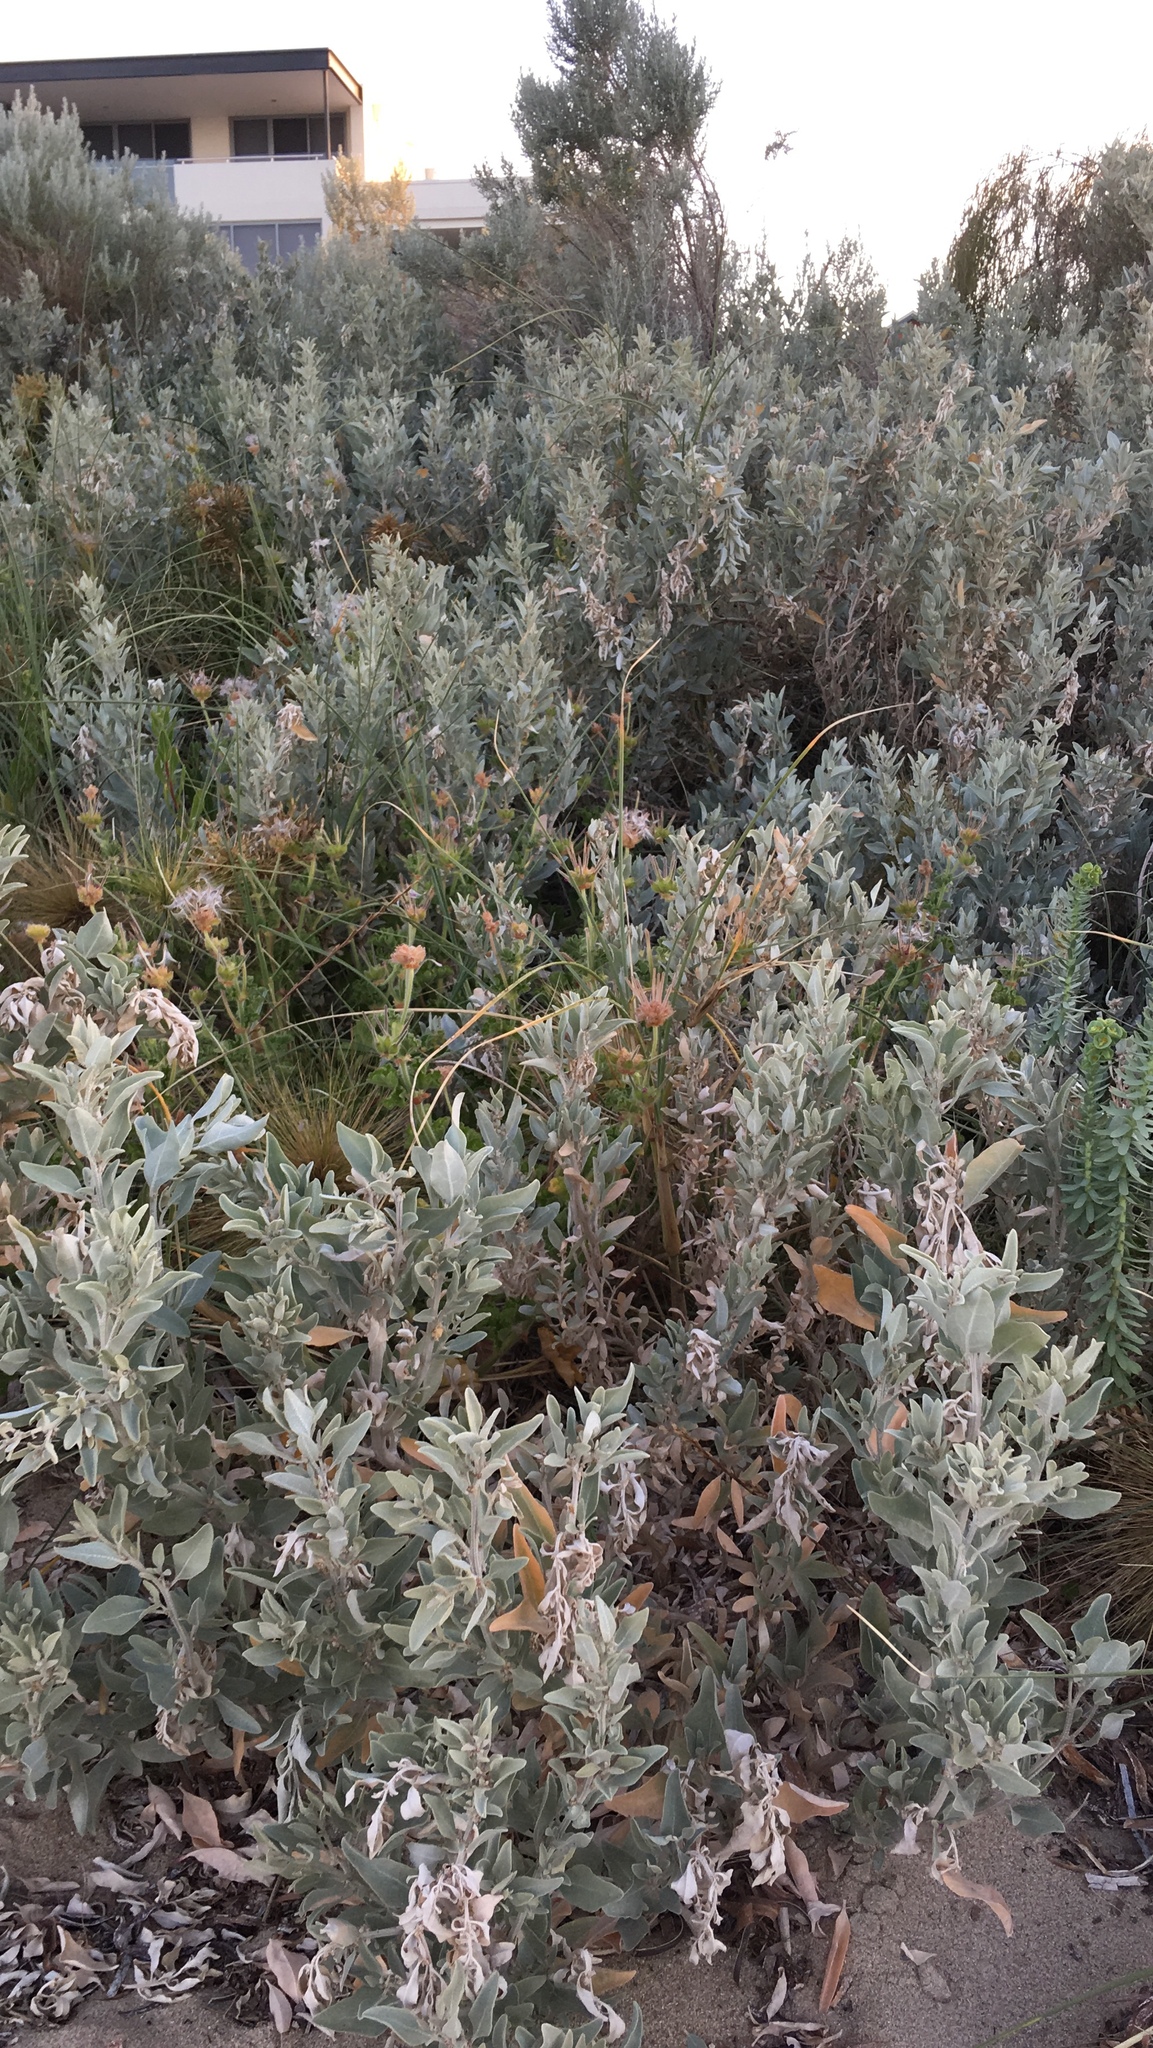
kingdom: Plantae
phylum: Tracheophyta
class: Magnoliopsida
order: Caryophyllales
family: Amaranthaceae
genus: Atriplex
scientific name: Atriplex cinerea
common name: Grey saltbush
